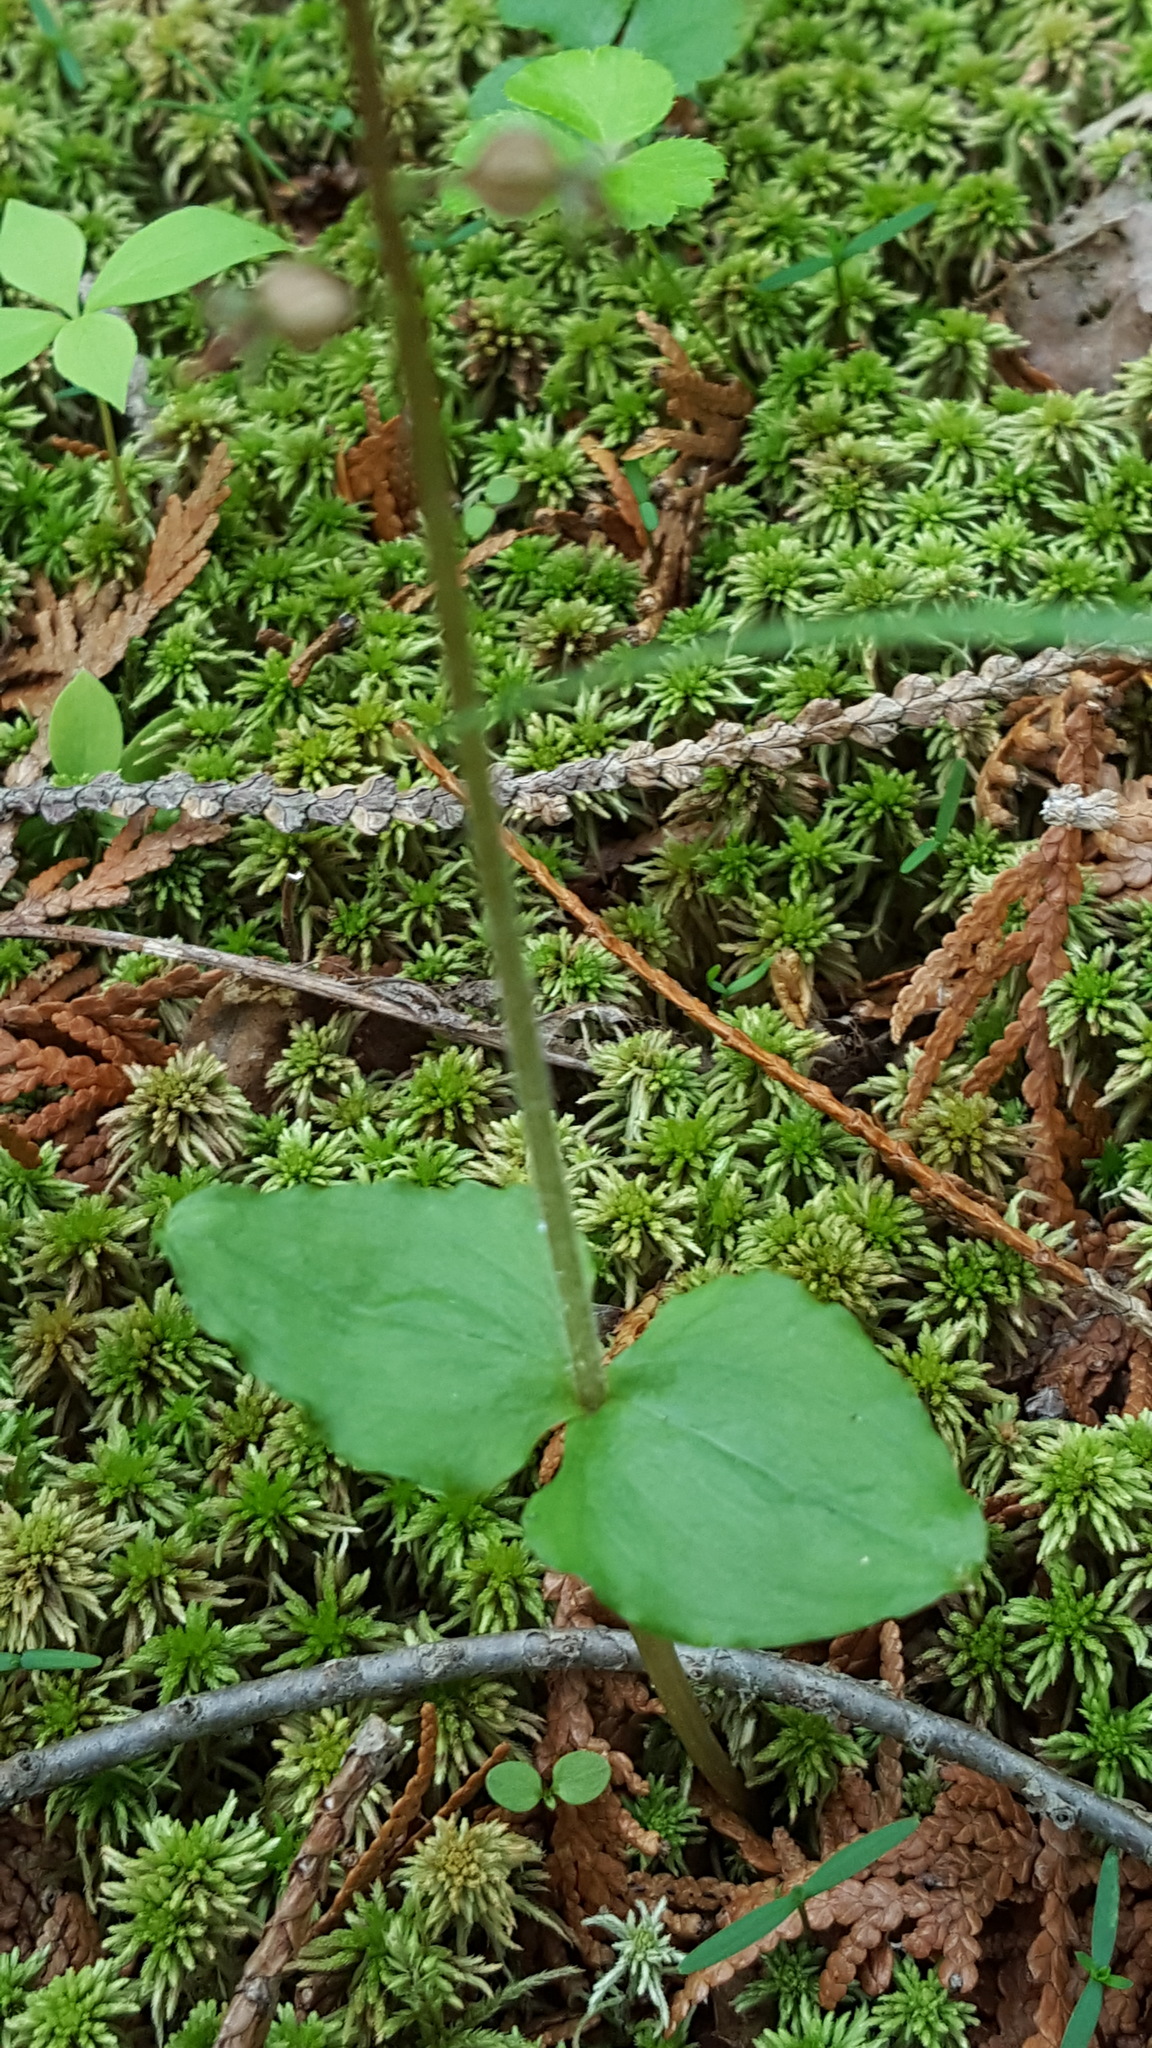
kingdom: Plantae
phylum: Tracheophyta
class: Liliopsida
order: Asparagales
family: Orchidaceae
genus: Neottia
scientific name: Neottia cordata
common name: Lesser twayblade
